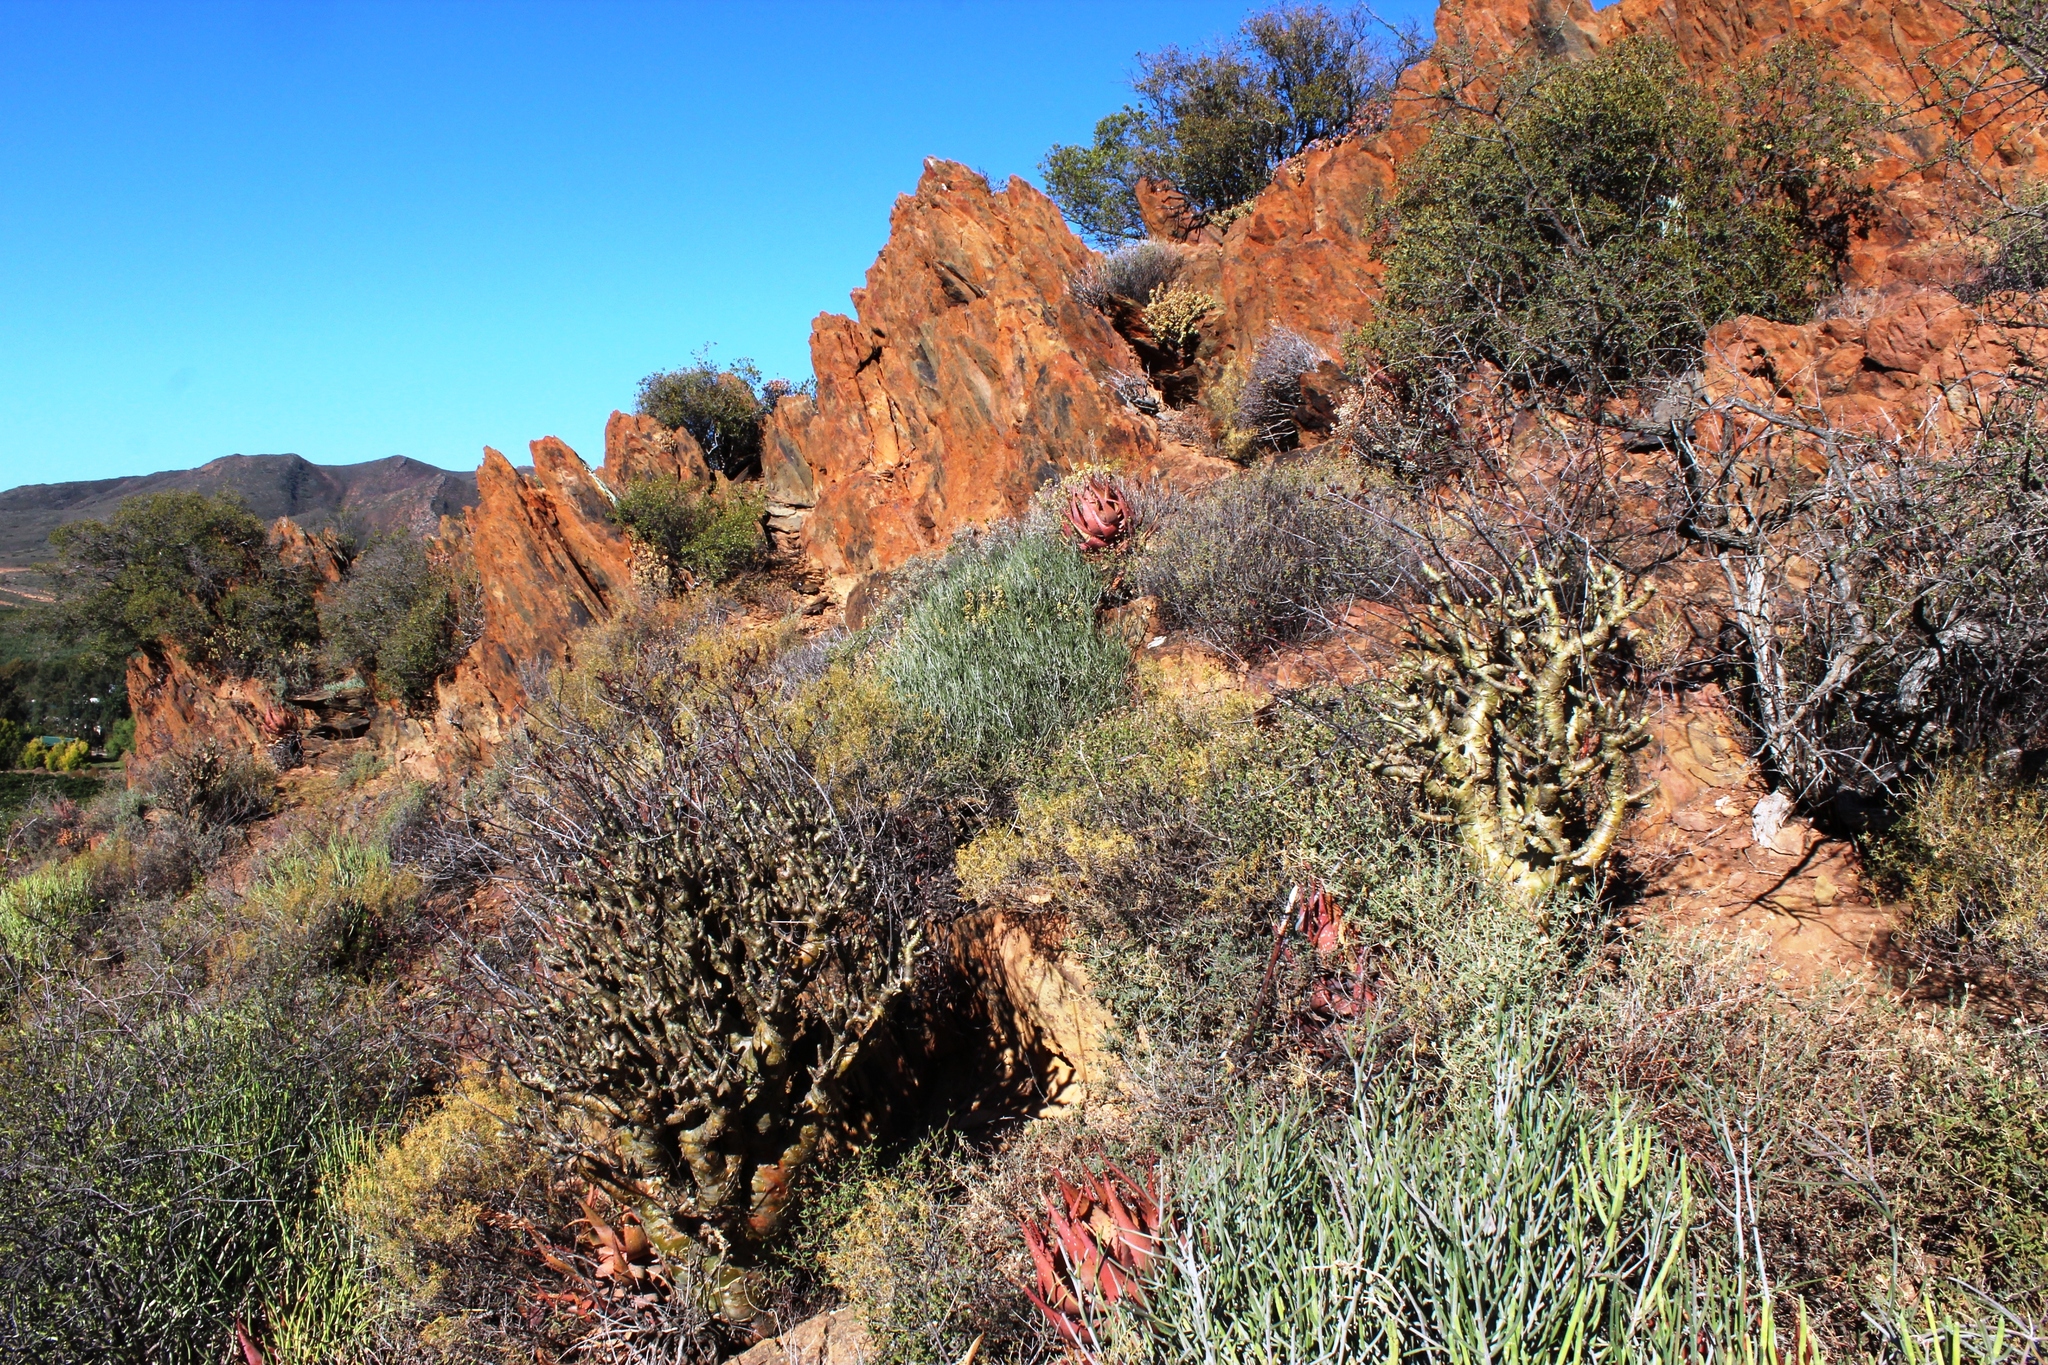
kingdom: Plantae
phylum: Tracheophyta
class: Magnoliopsida
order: Saxifragales
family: Crassulaceae
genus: Tylecodon
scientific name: Tylecodon paniculatus
